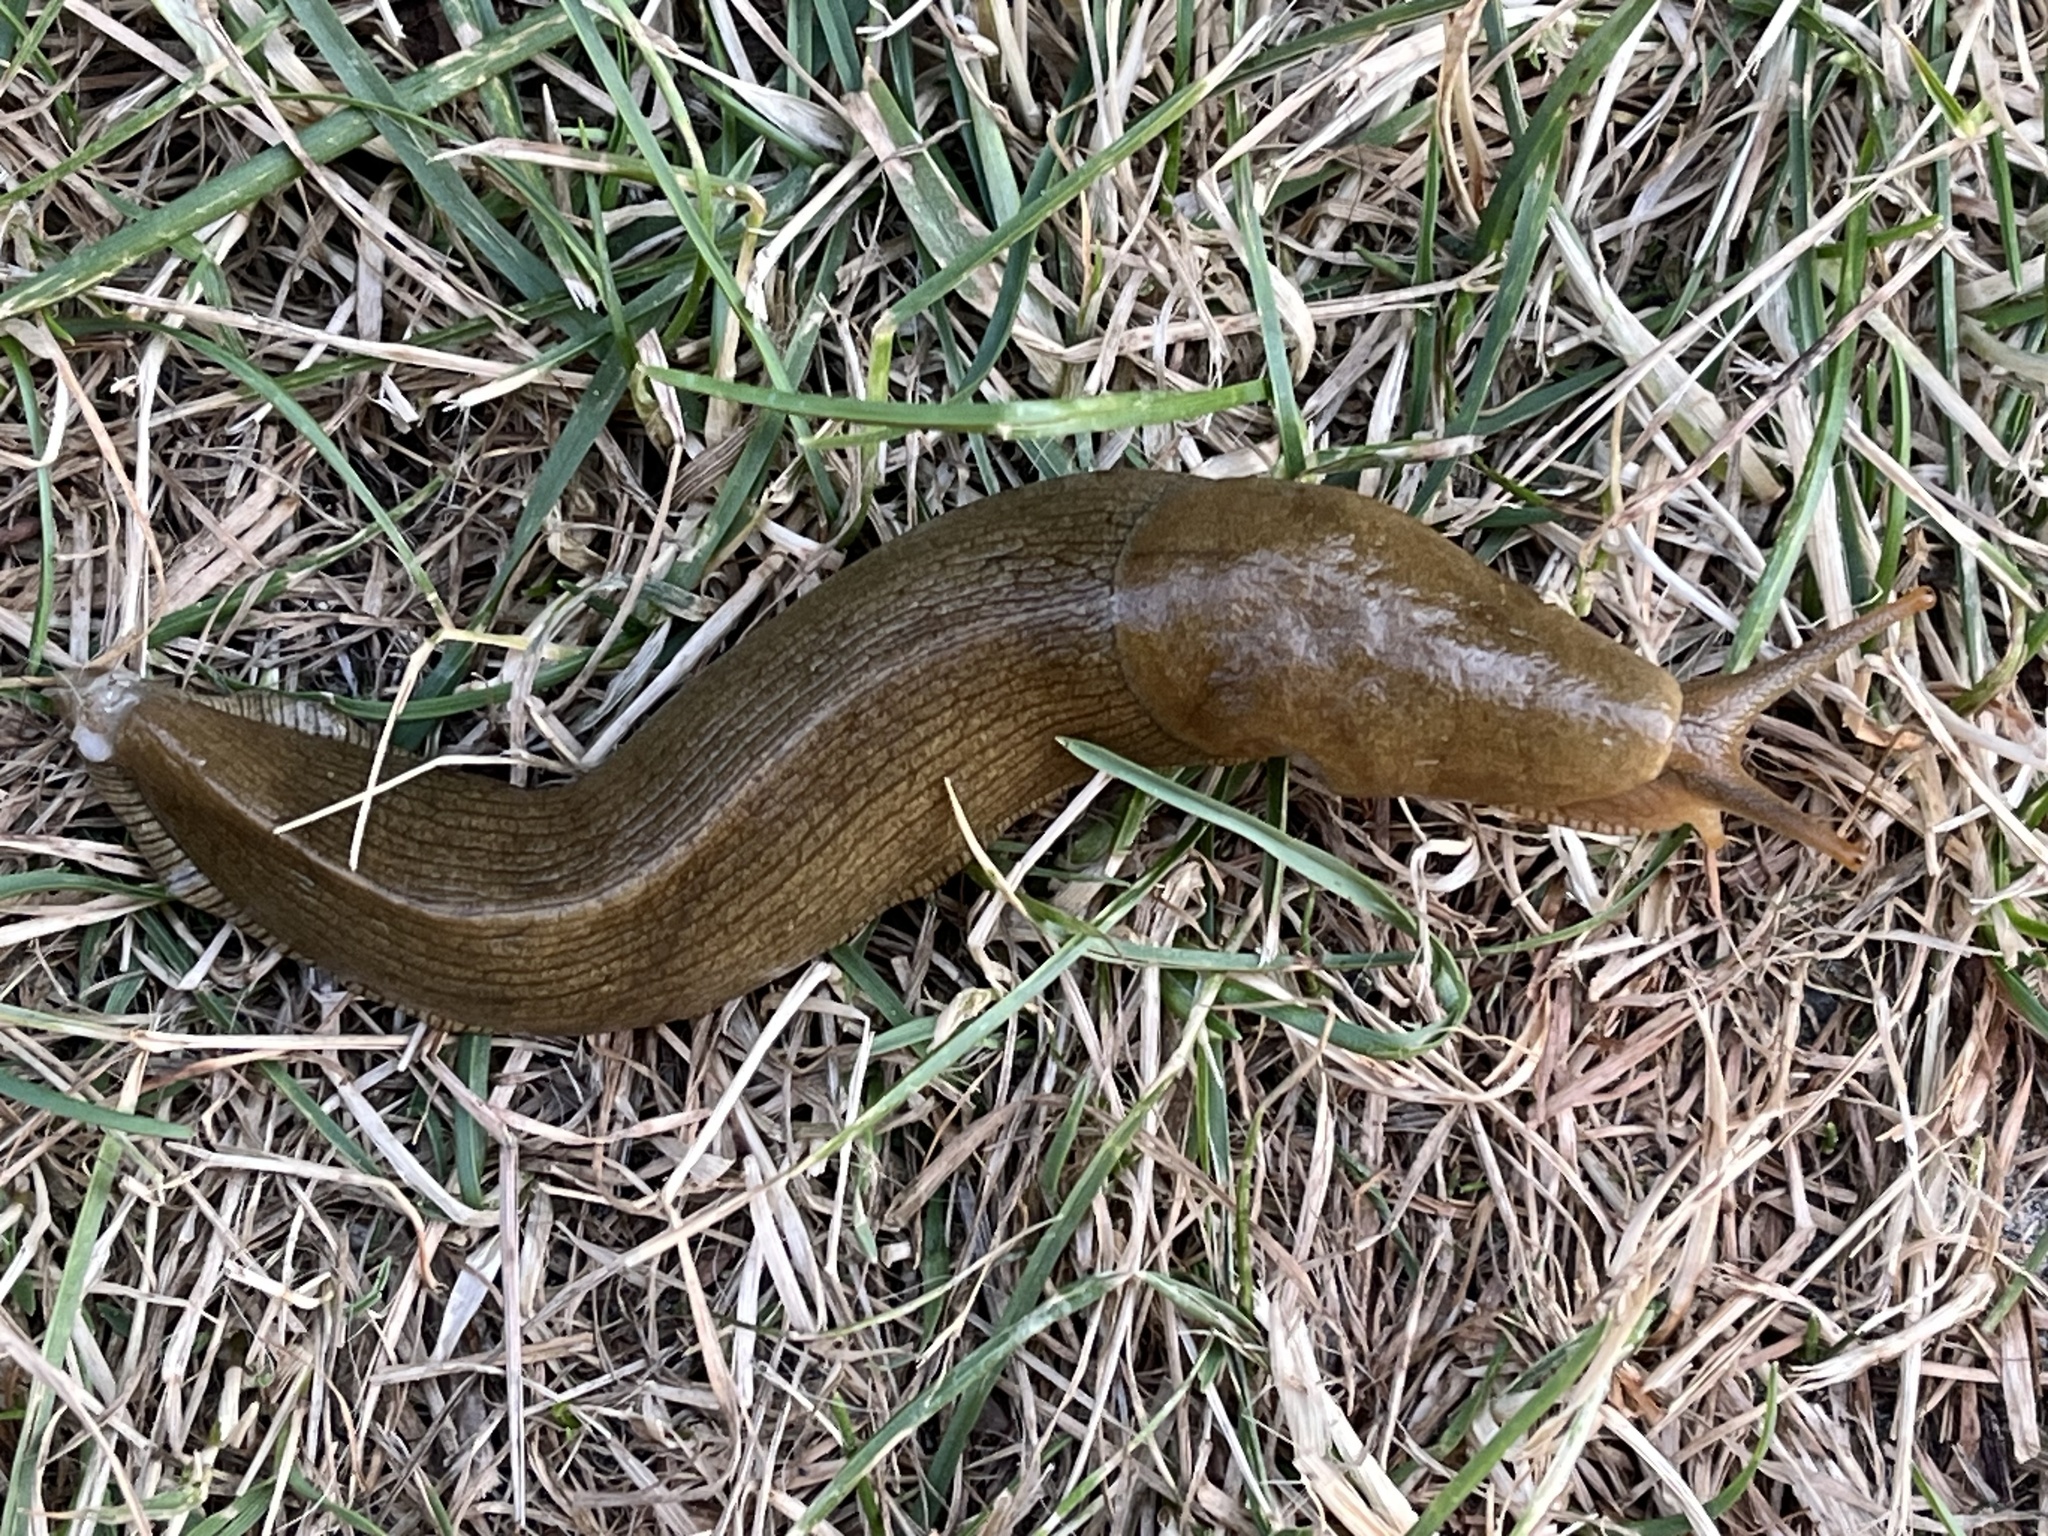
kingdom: Animalia
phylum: Mollusca
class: Gastropoda
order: Stylommatophora
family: Ariolimacidae
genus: Ariolimax
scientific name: Ariolimax columbianus
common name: Pacific banana slug
